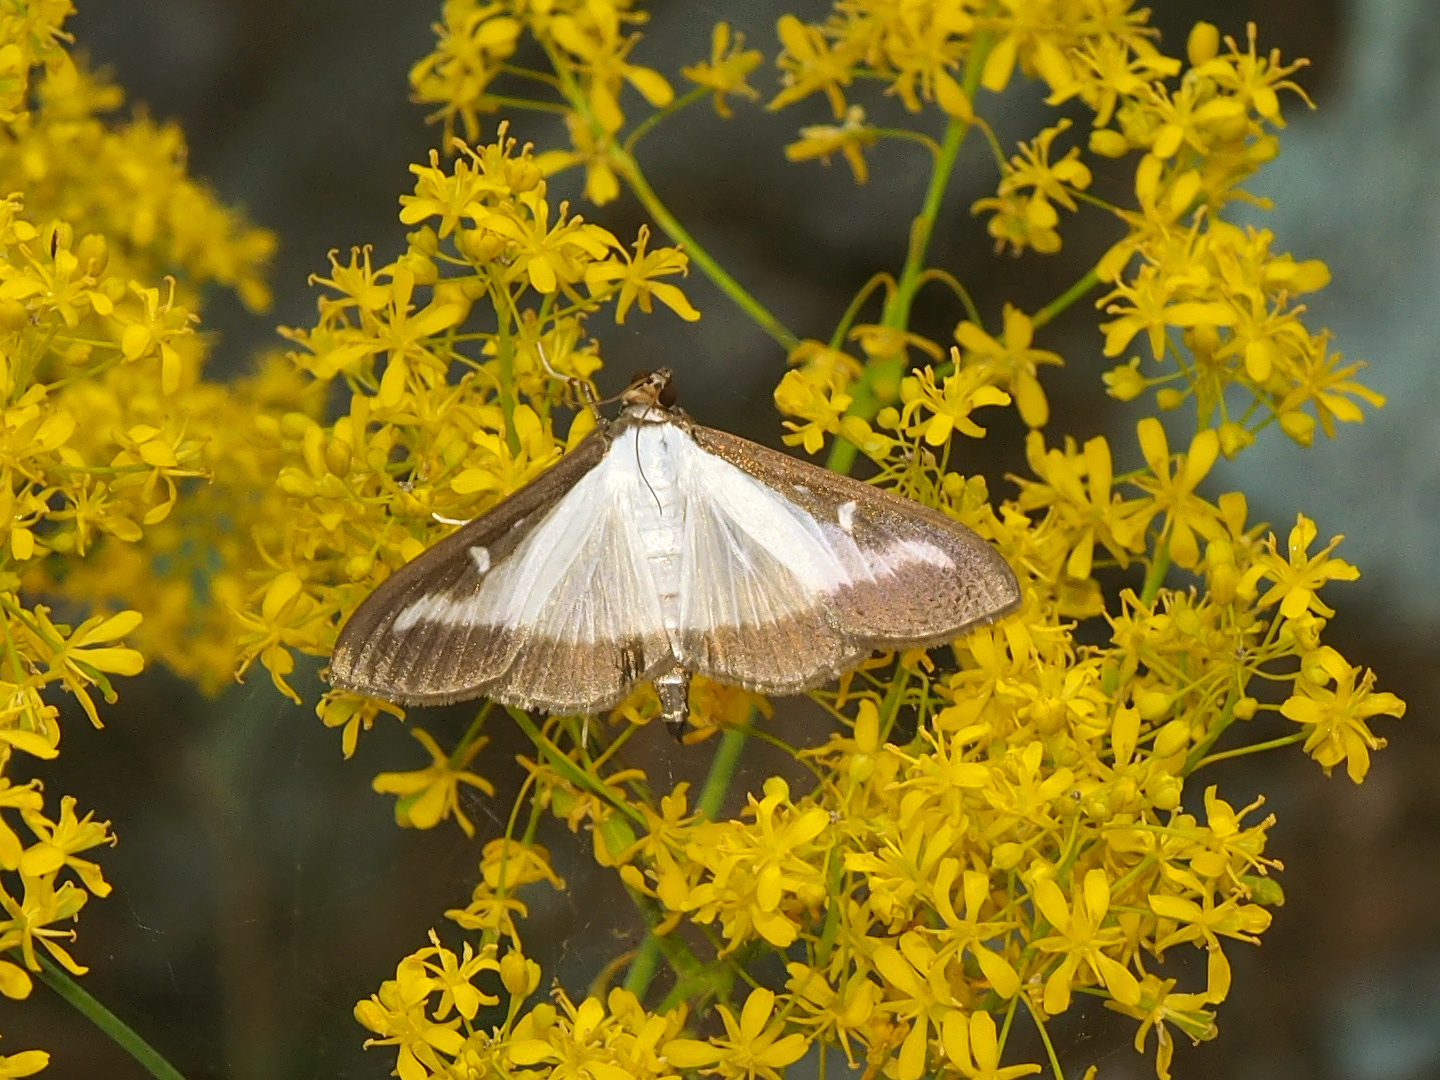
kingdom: Animalia
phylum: Arthropoda
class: Insecta
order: Lepidoptera
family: Crambidae
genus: Cydalima
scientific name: Cydalima perspectalis
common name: Box tree moth
